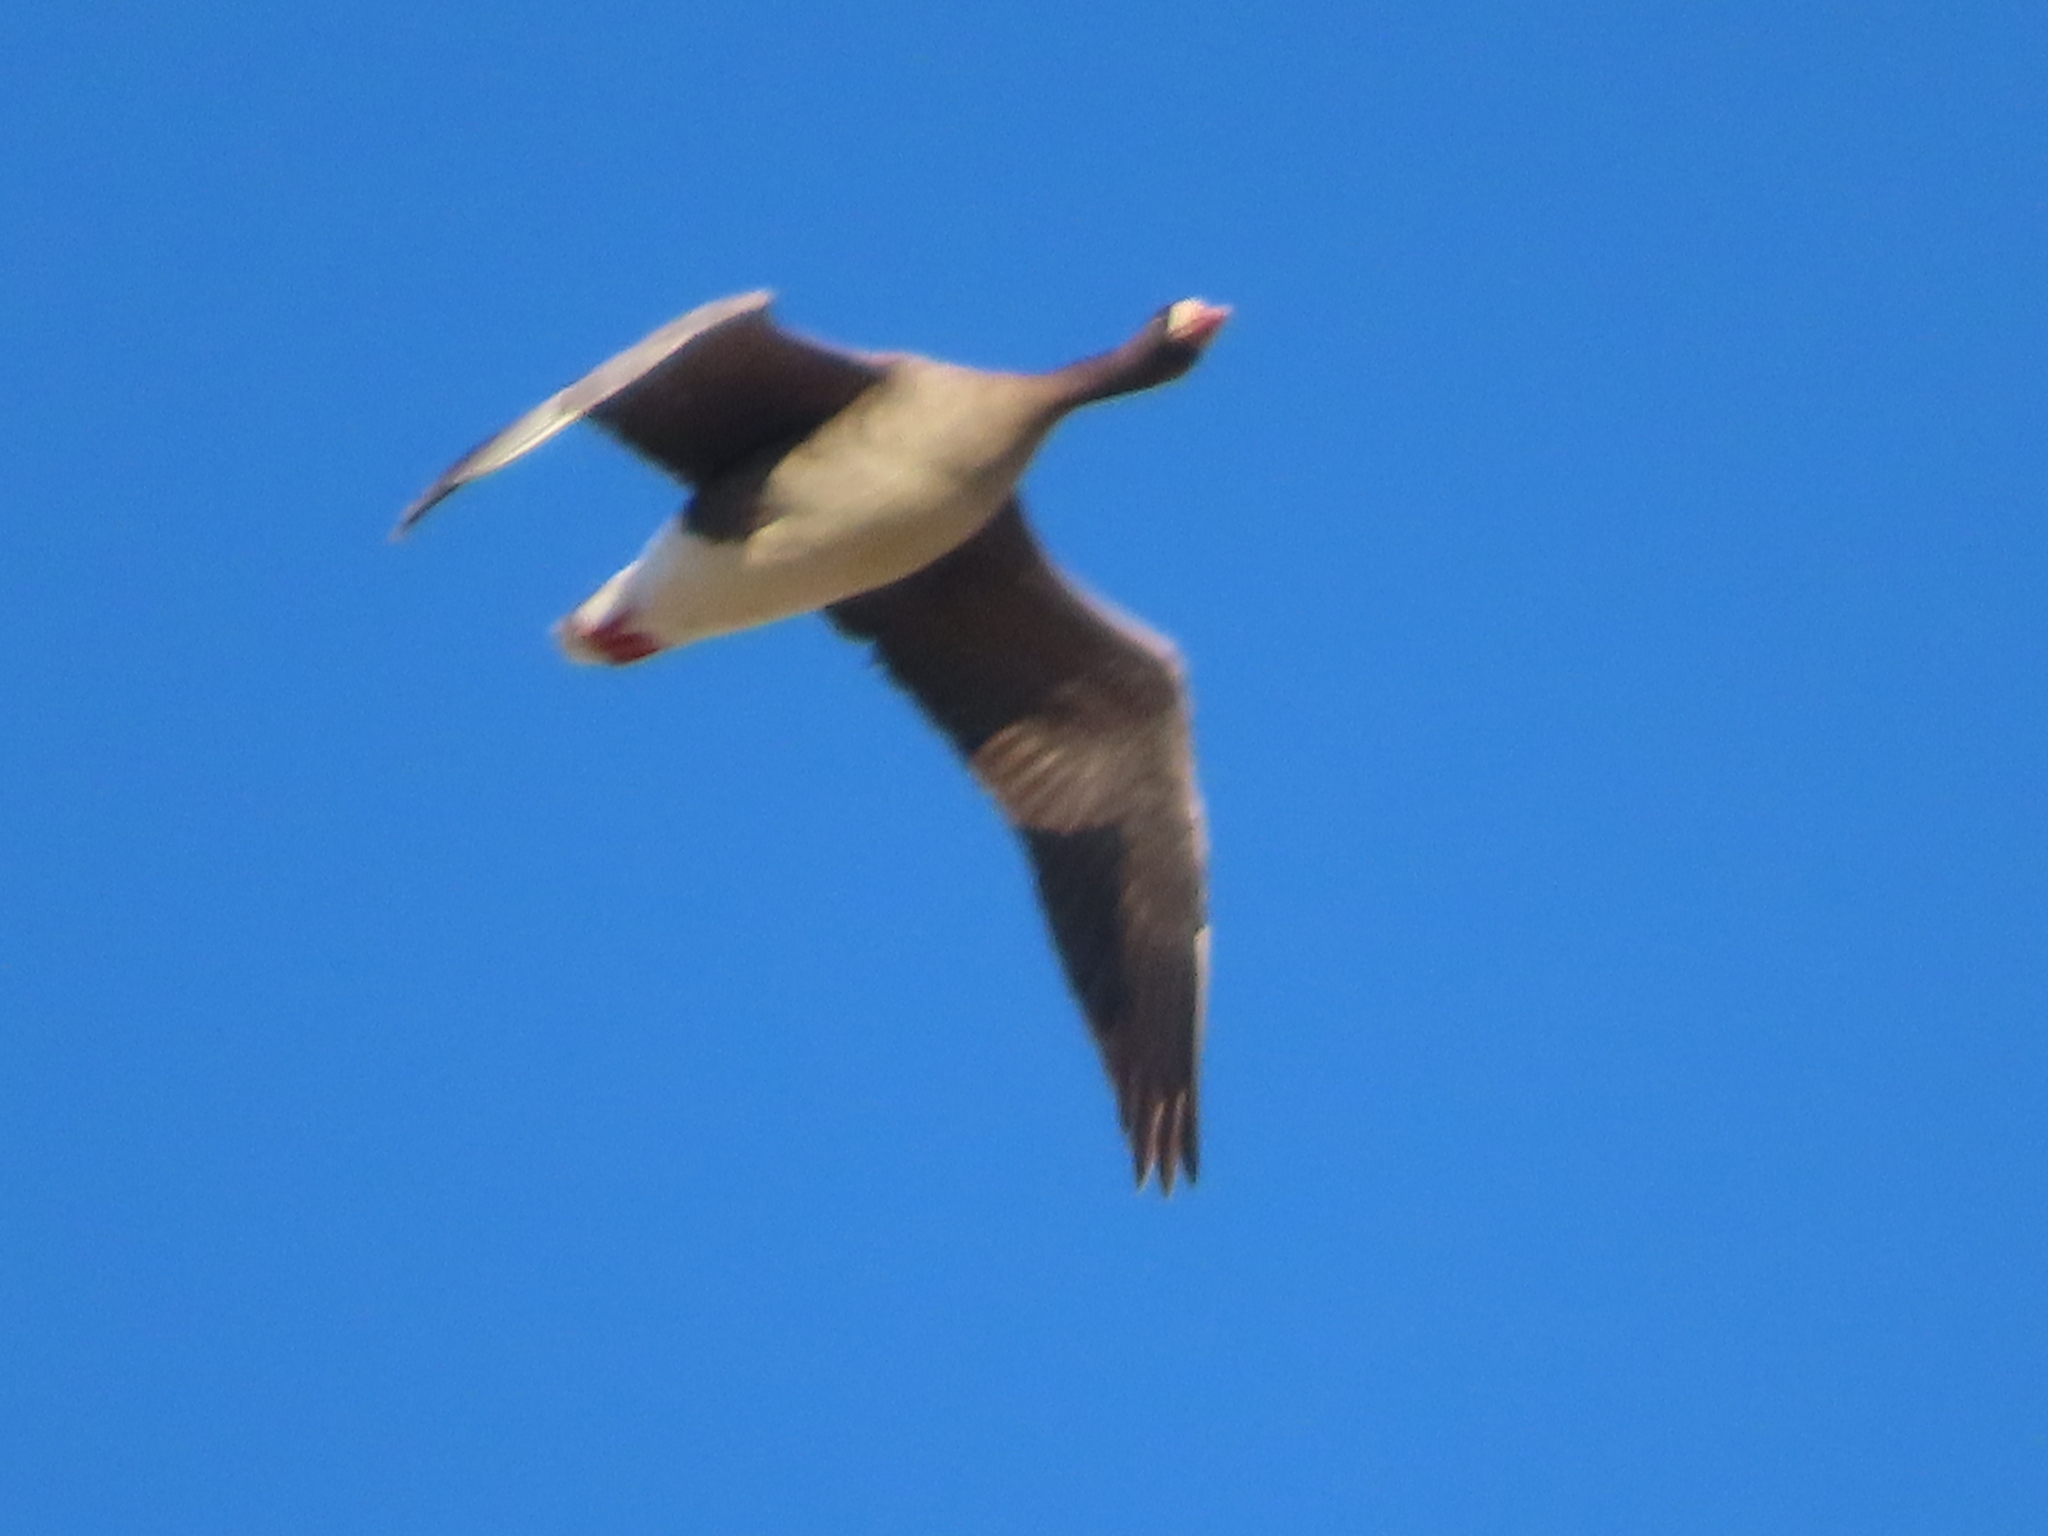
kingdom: Animalia
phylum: Chordata
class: Aves
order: Anseriformes
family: Anatidae
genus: Anser
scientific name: Anser albifrons
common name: Greater white-fronted goose
